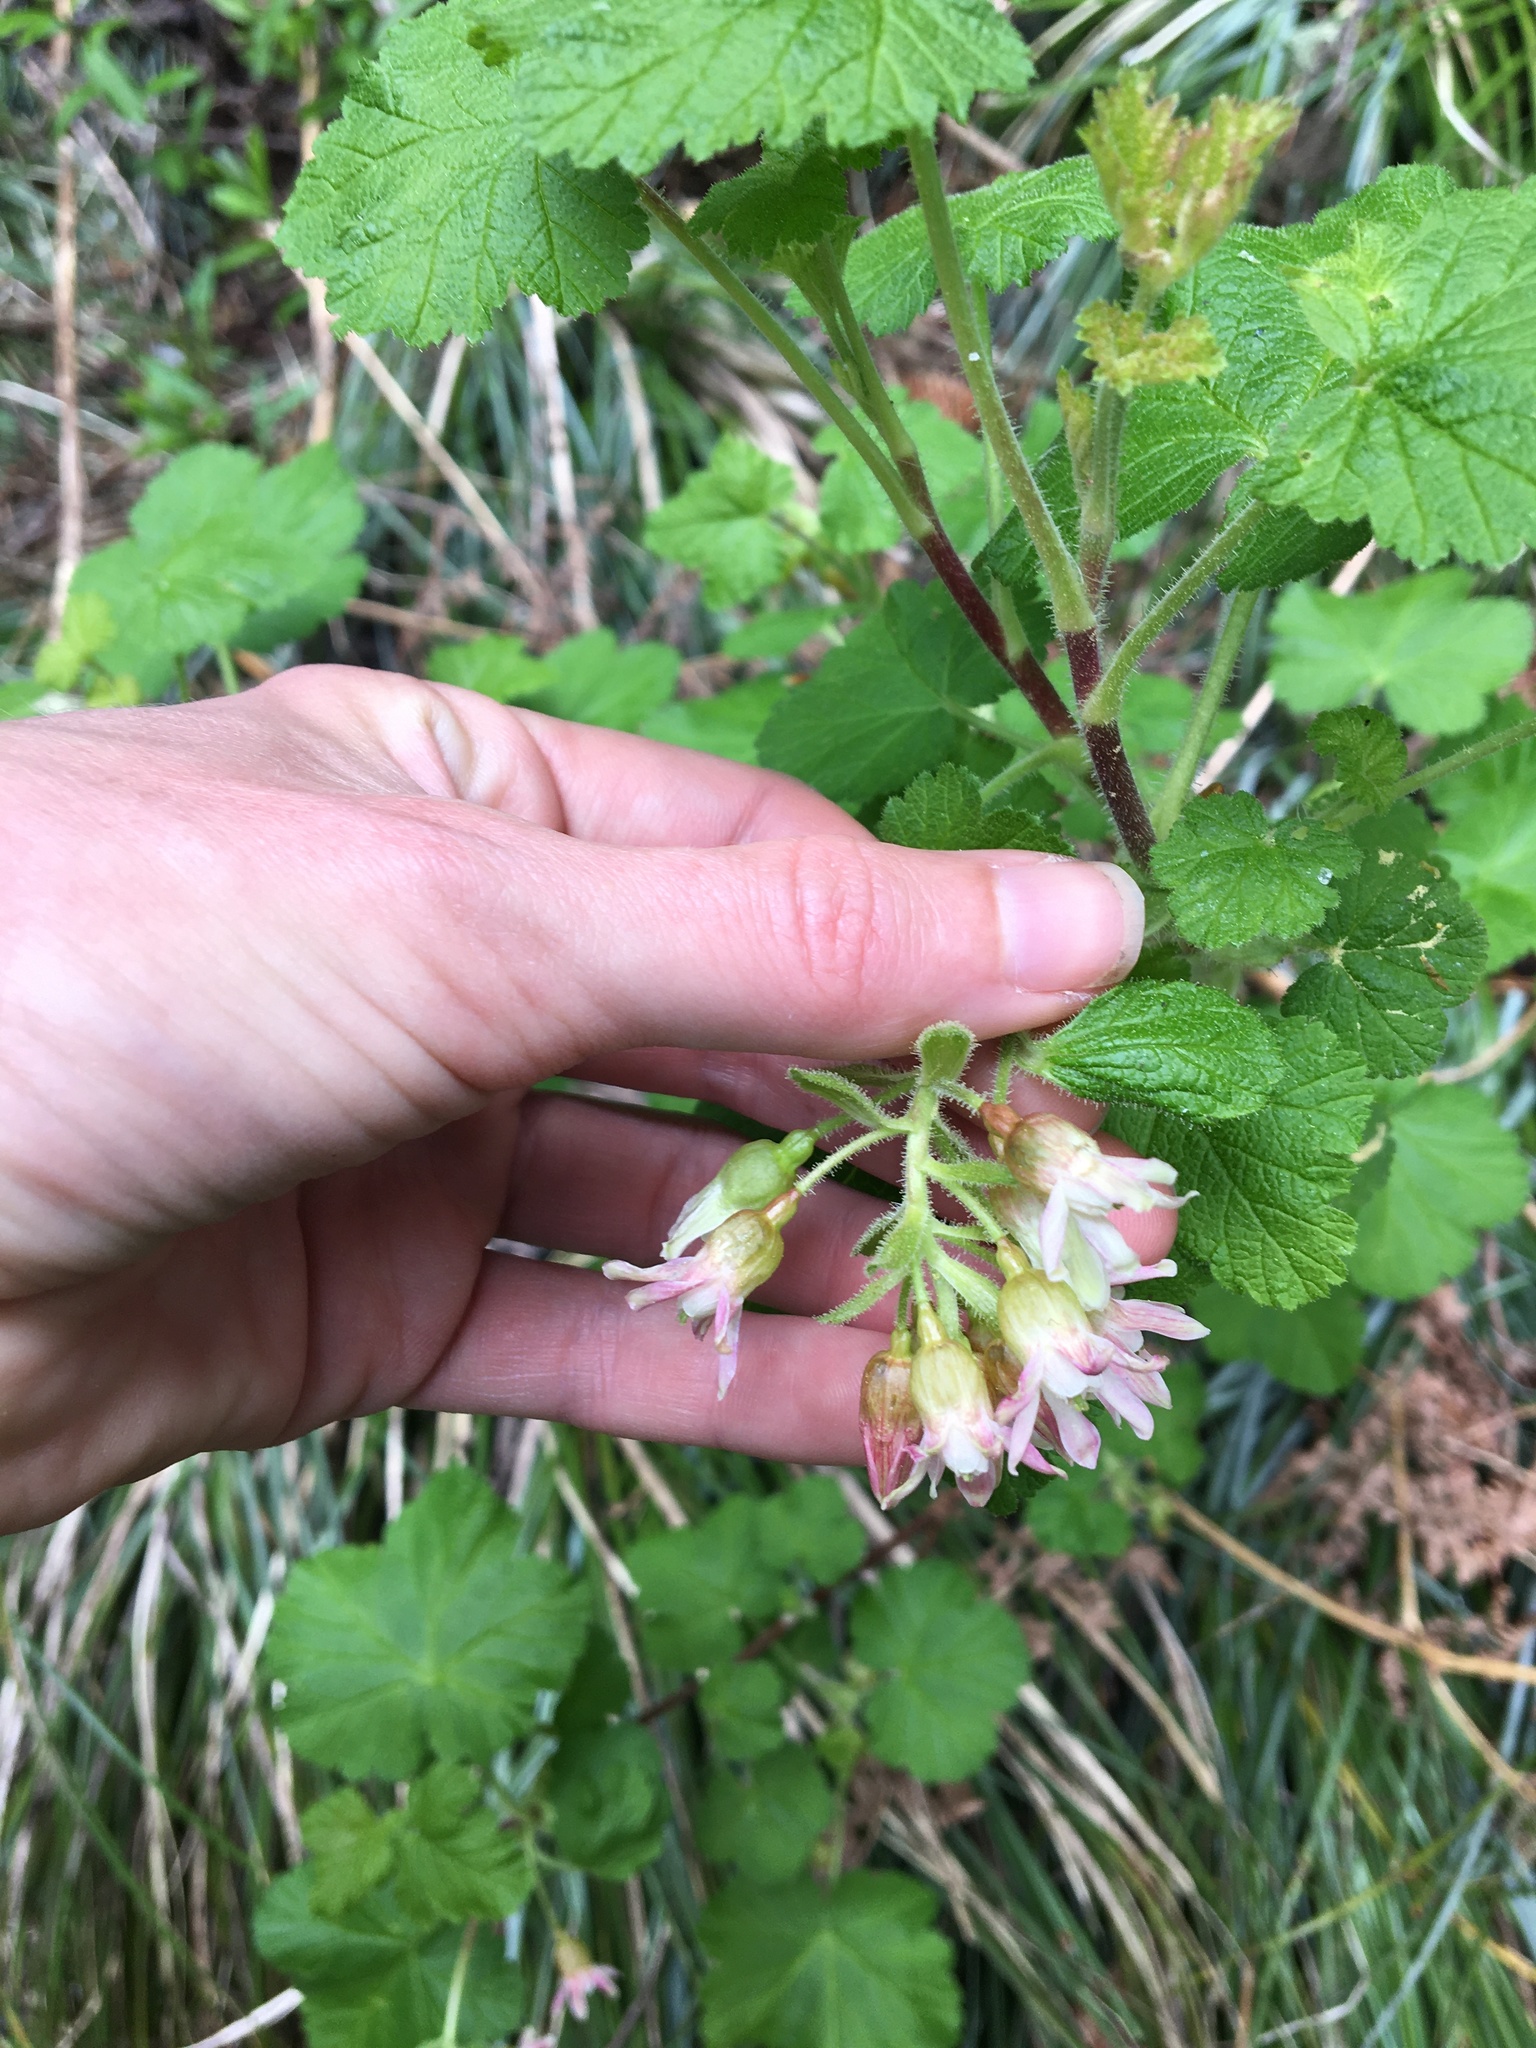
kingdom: Plantae
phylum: Tracheophyta
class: Magnoliopsida
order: Saxifragales
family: Grossulariaceae
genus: Ribes
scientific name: Ribes viscosissimum
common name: Sticky currant
